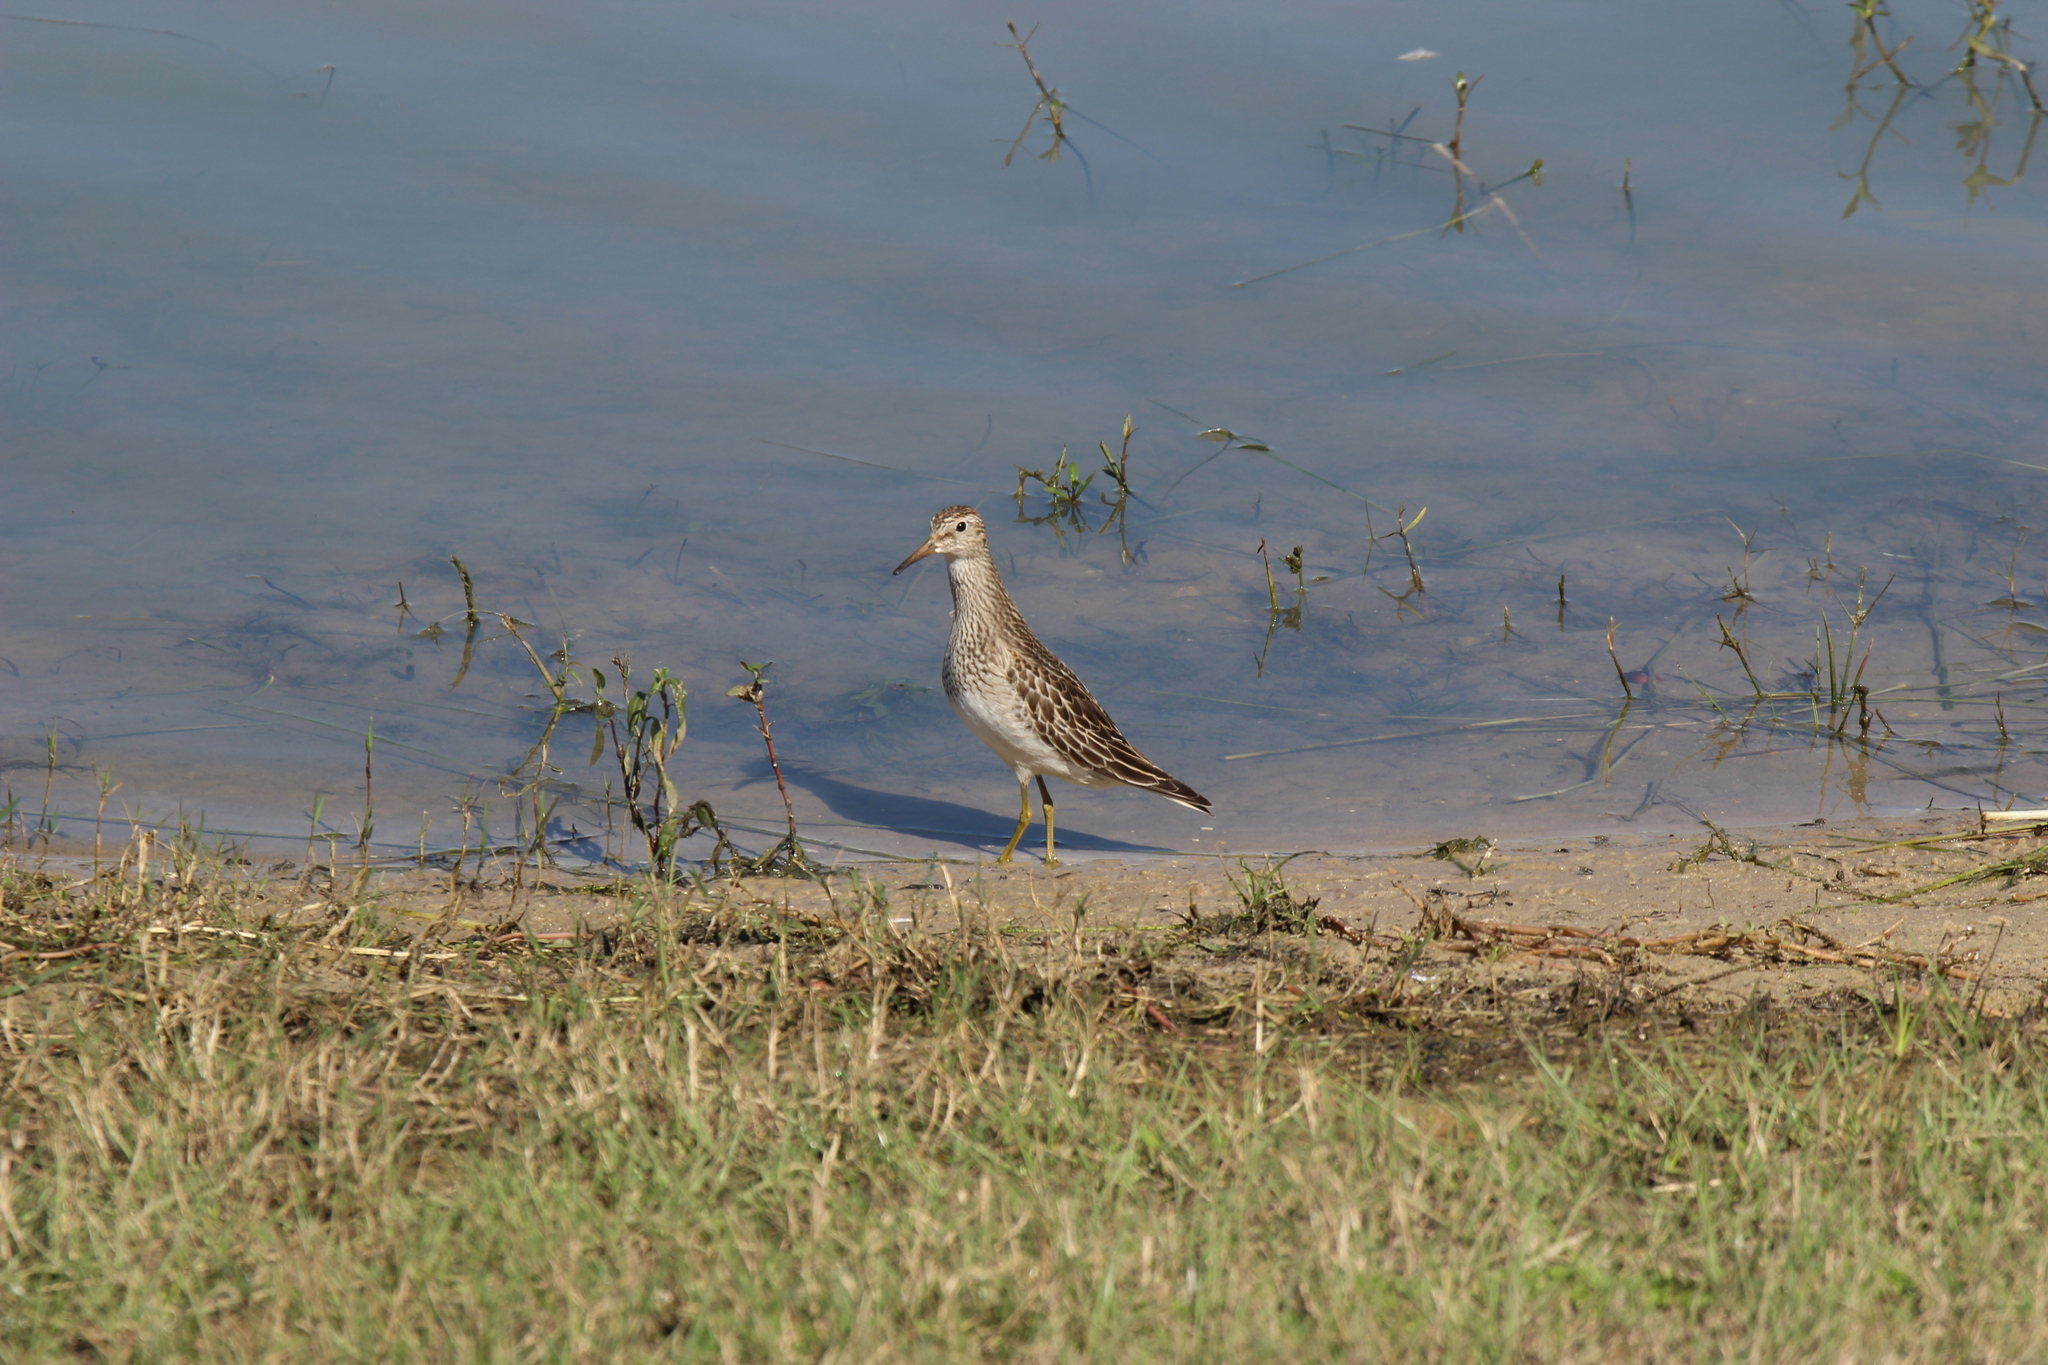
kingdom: Animalia
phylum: Chordata
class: Aves
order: Charadriiformes
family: Scolopacidae
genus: Calidris
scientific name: Calidris melanotos
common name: Pectoral sandpiper
